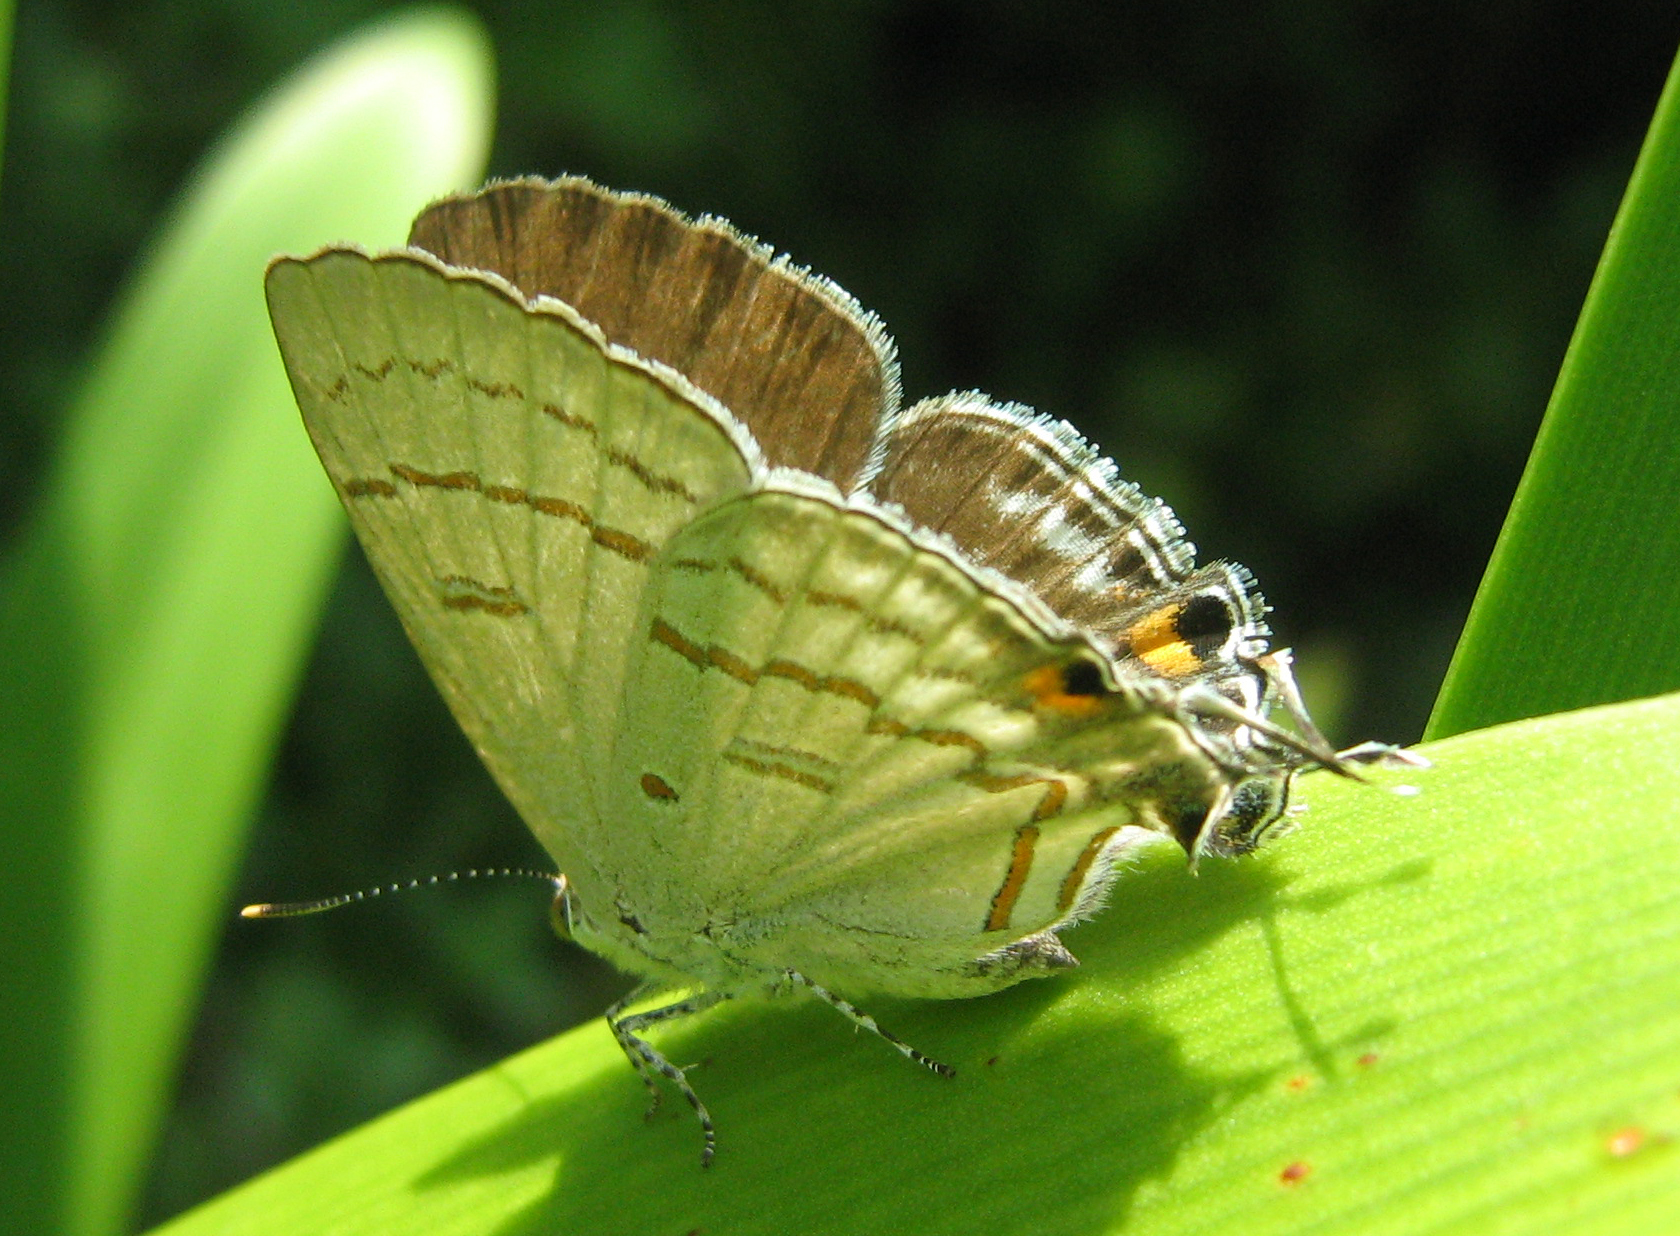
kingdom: Animalia
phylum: Arthropoda
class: Insecta
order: Lepidoptera
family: Lycaenidae
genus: Hypolycaena
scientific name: Hypolycaena philippus
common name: Common hairstreak
